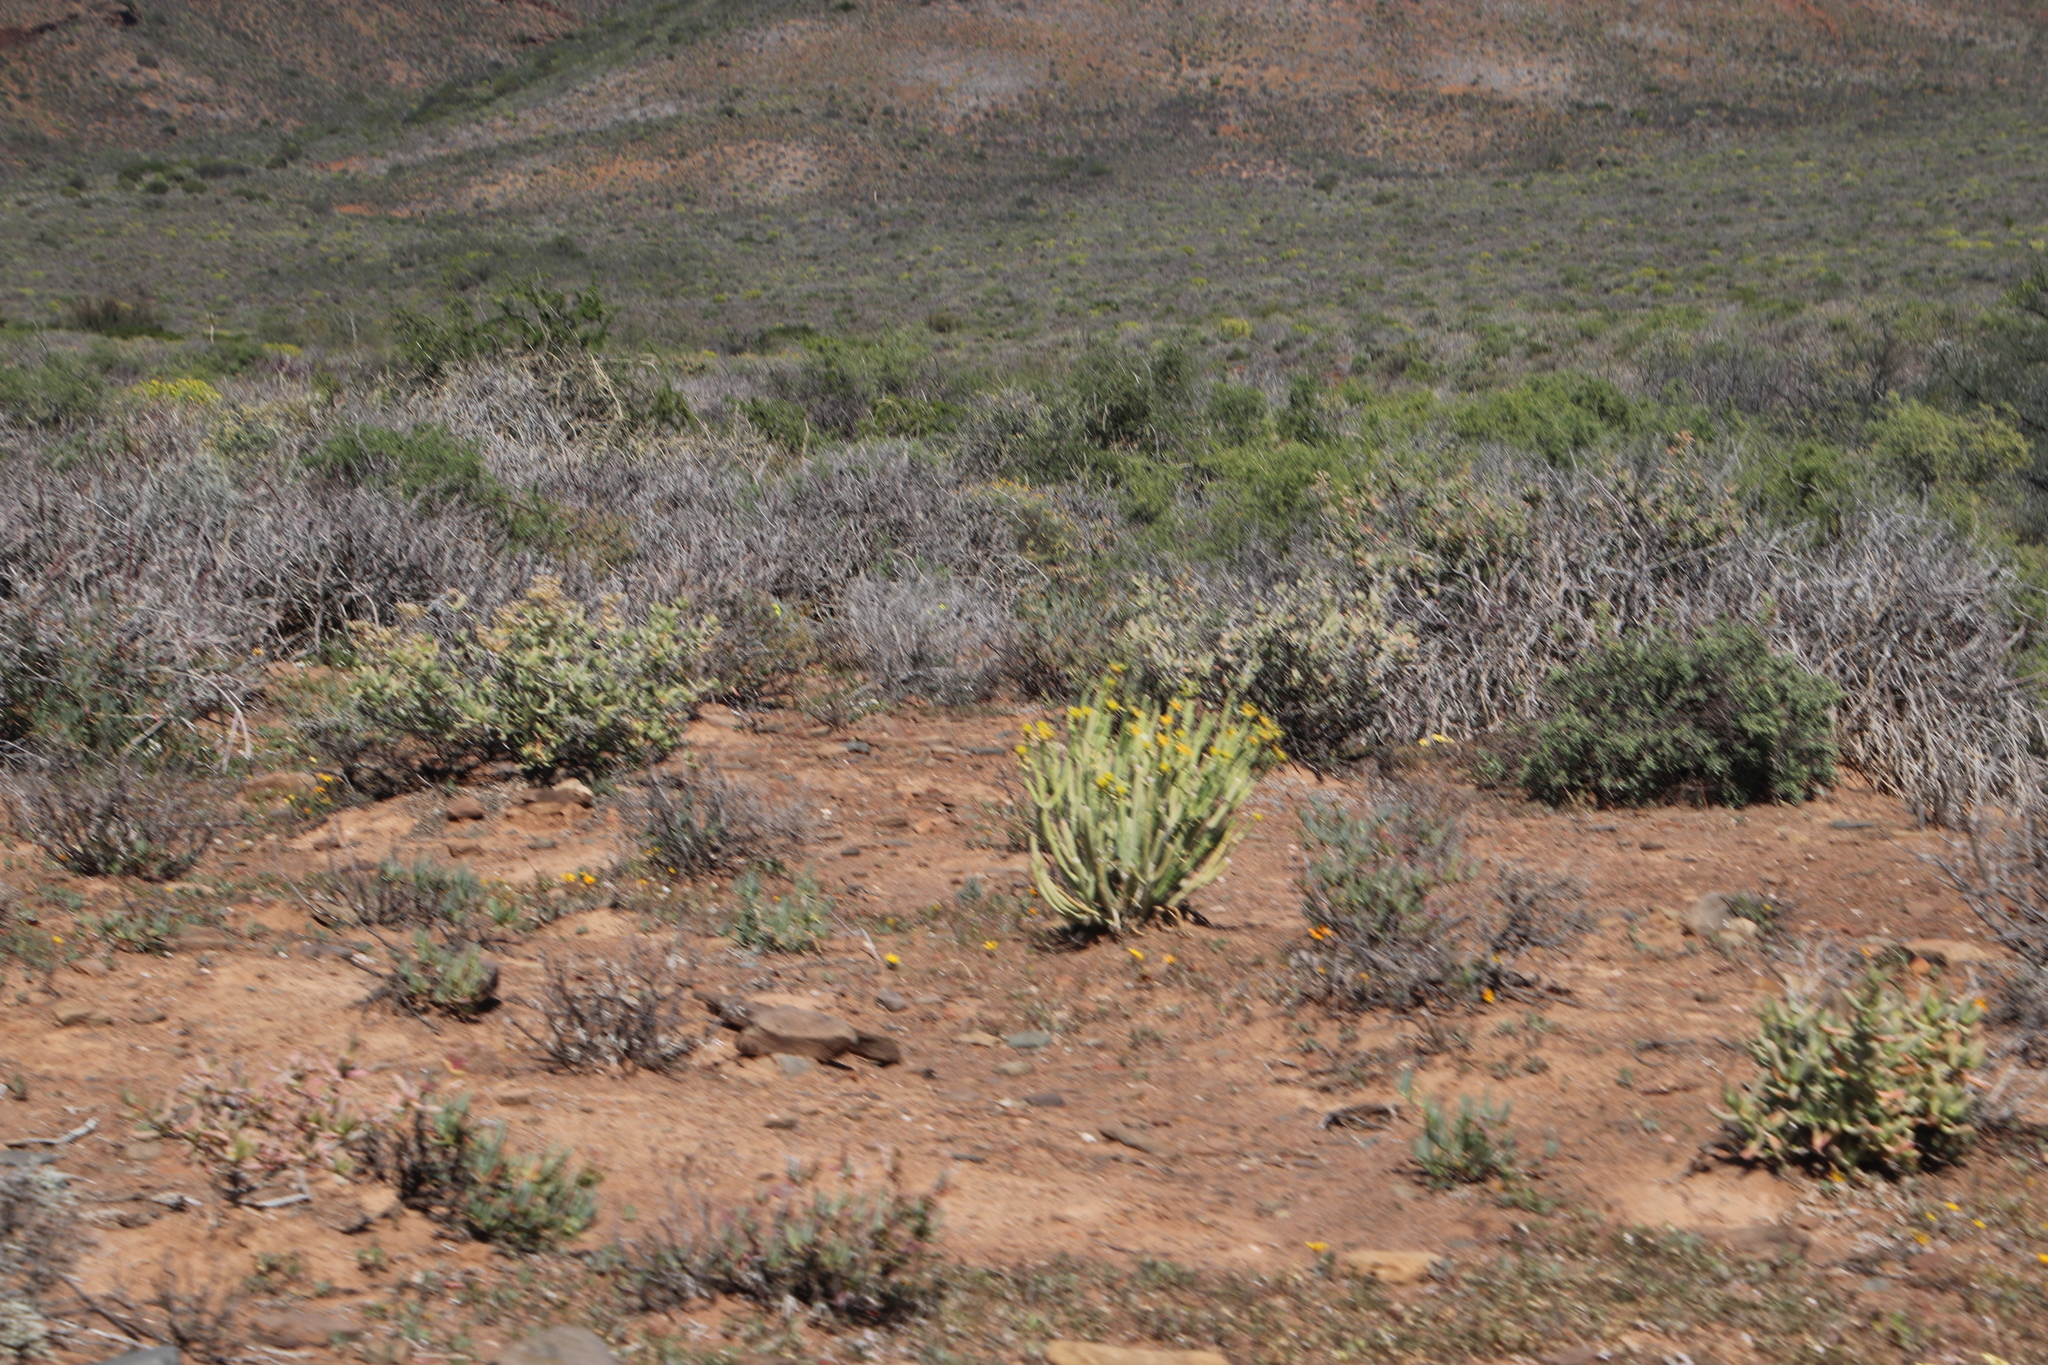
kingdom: Plantae
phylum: Tracheophyta
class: Magnoliopsida
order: Malpighiales
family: Euphorbiaceae
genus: Euphorbia
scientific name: Euphorbia mauritanica
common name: Jackal's-food
